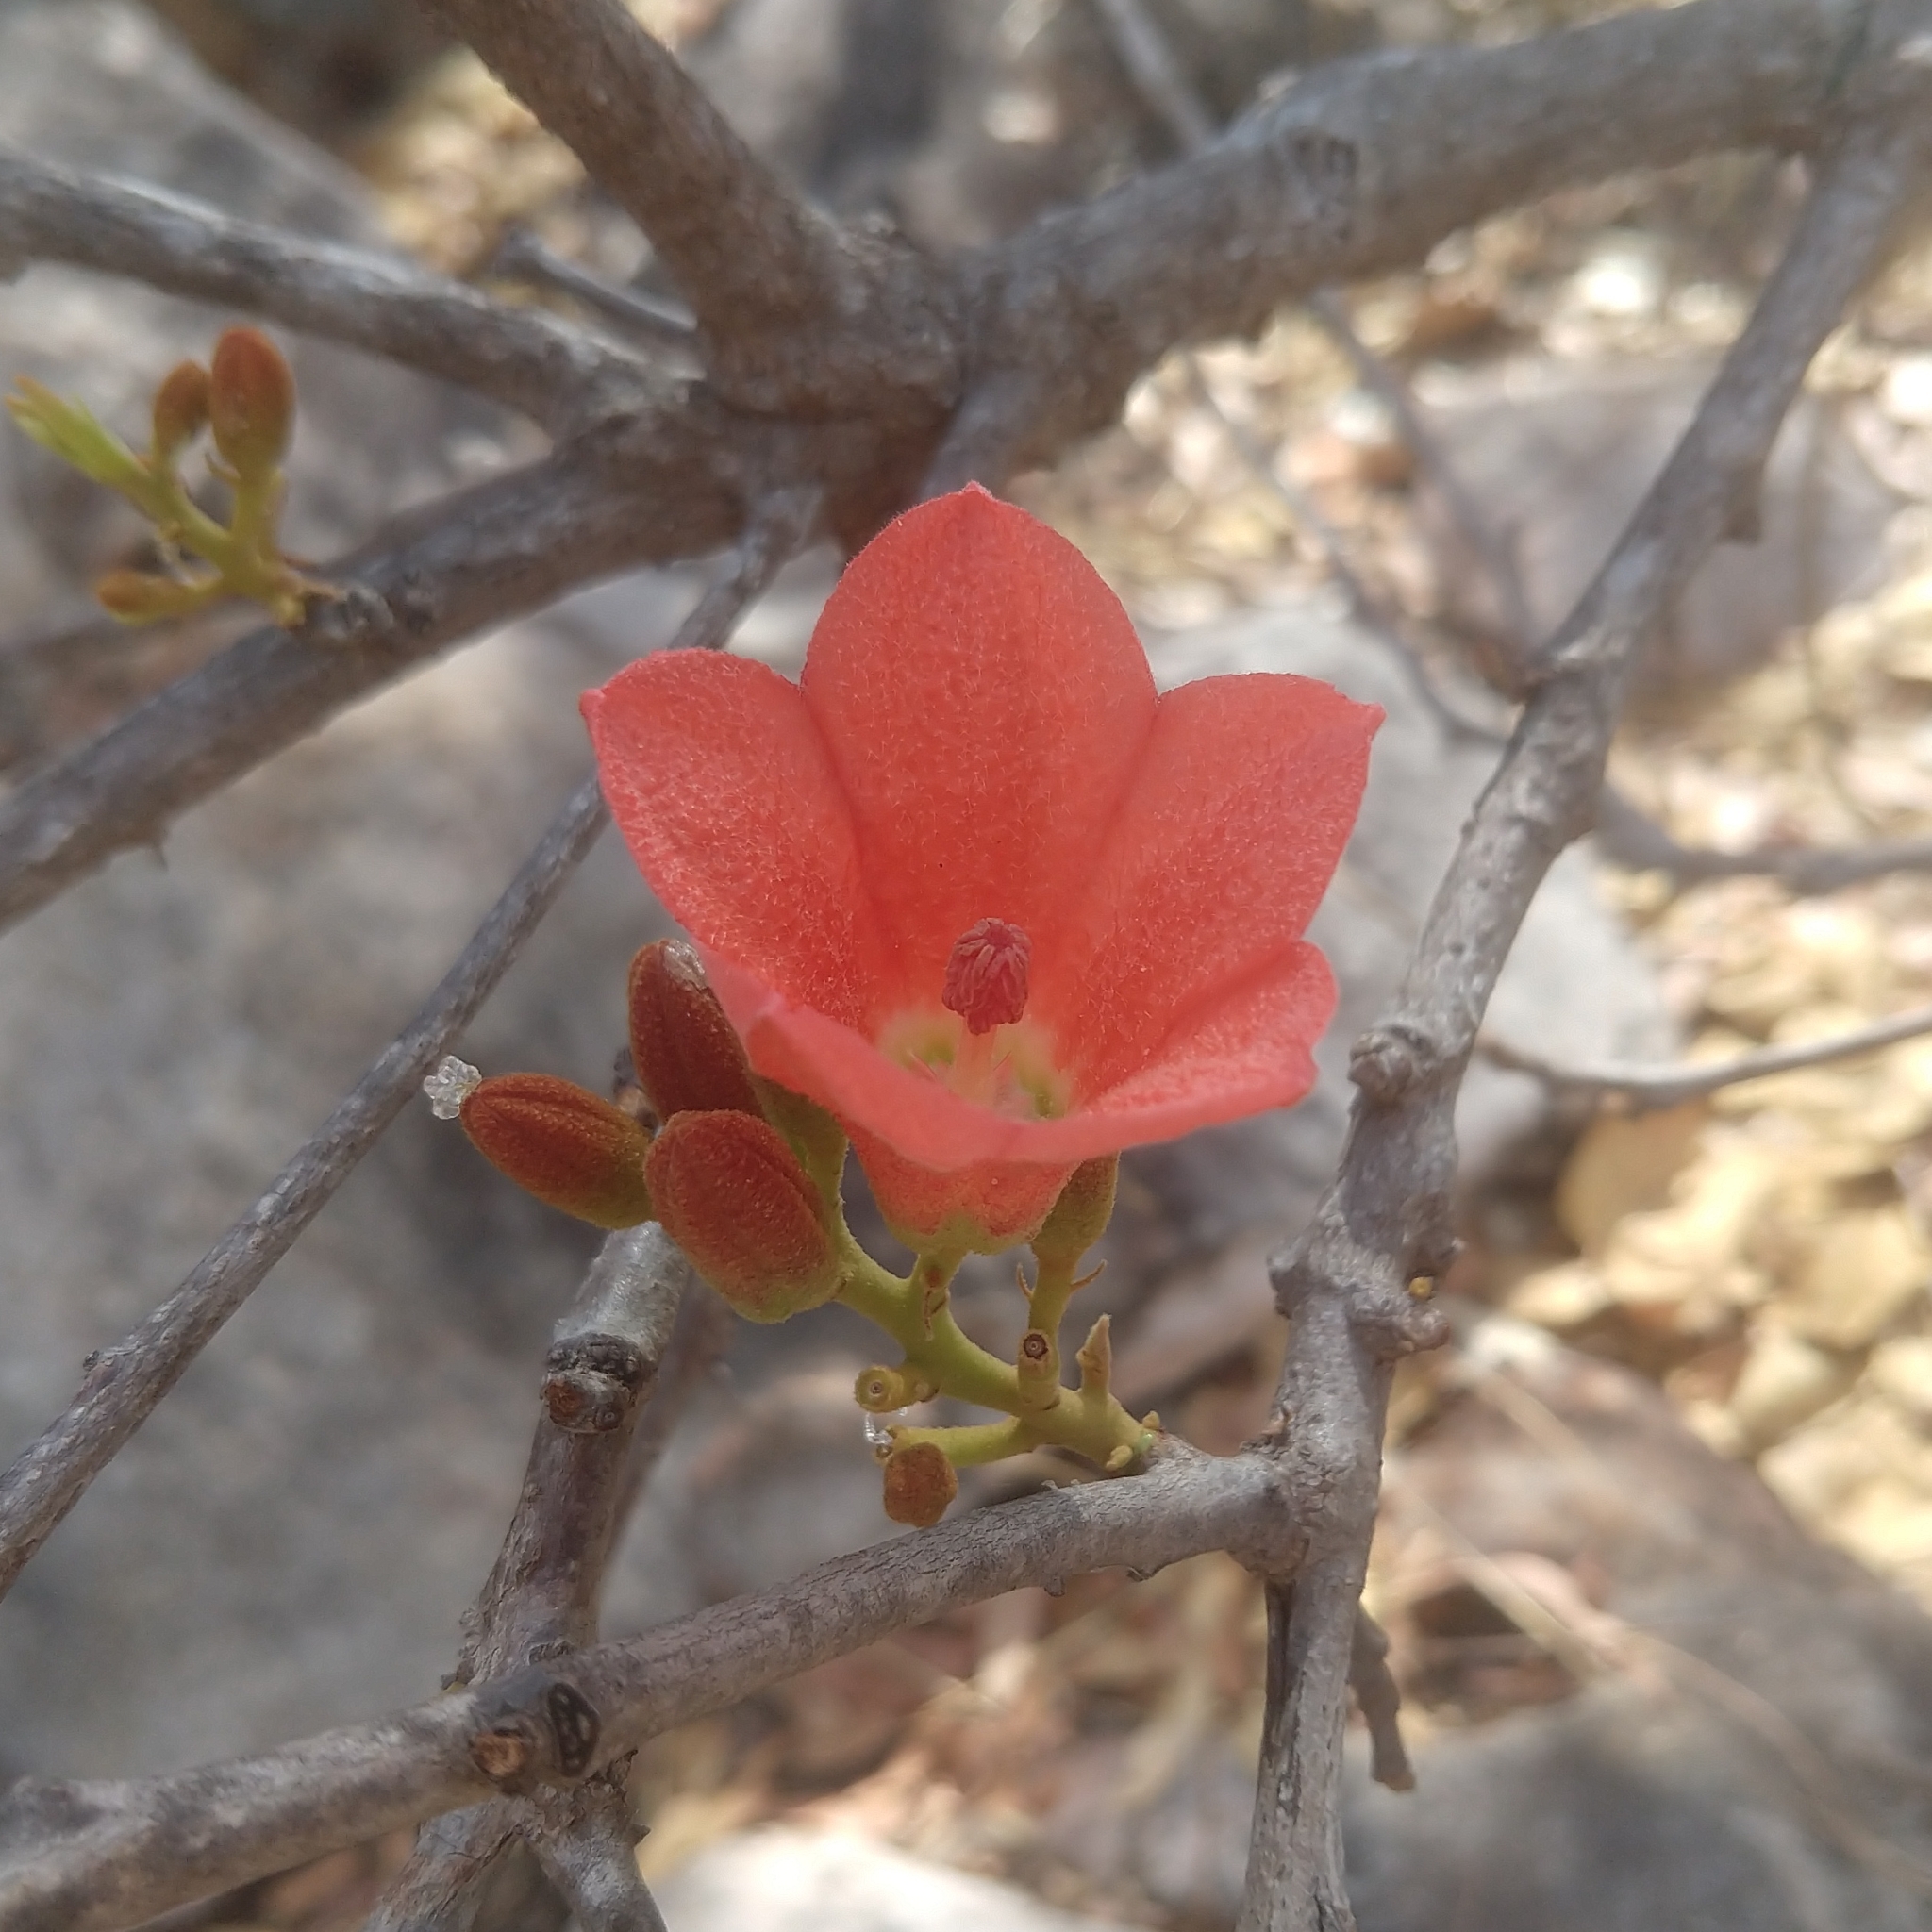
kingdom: Plantae
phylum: Tracheophyta
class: Magnoliopsida
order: Malvales
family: Malvaceae
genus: Brachychiton
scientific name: Brachychiton megaphyllus
